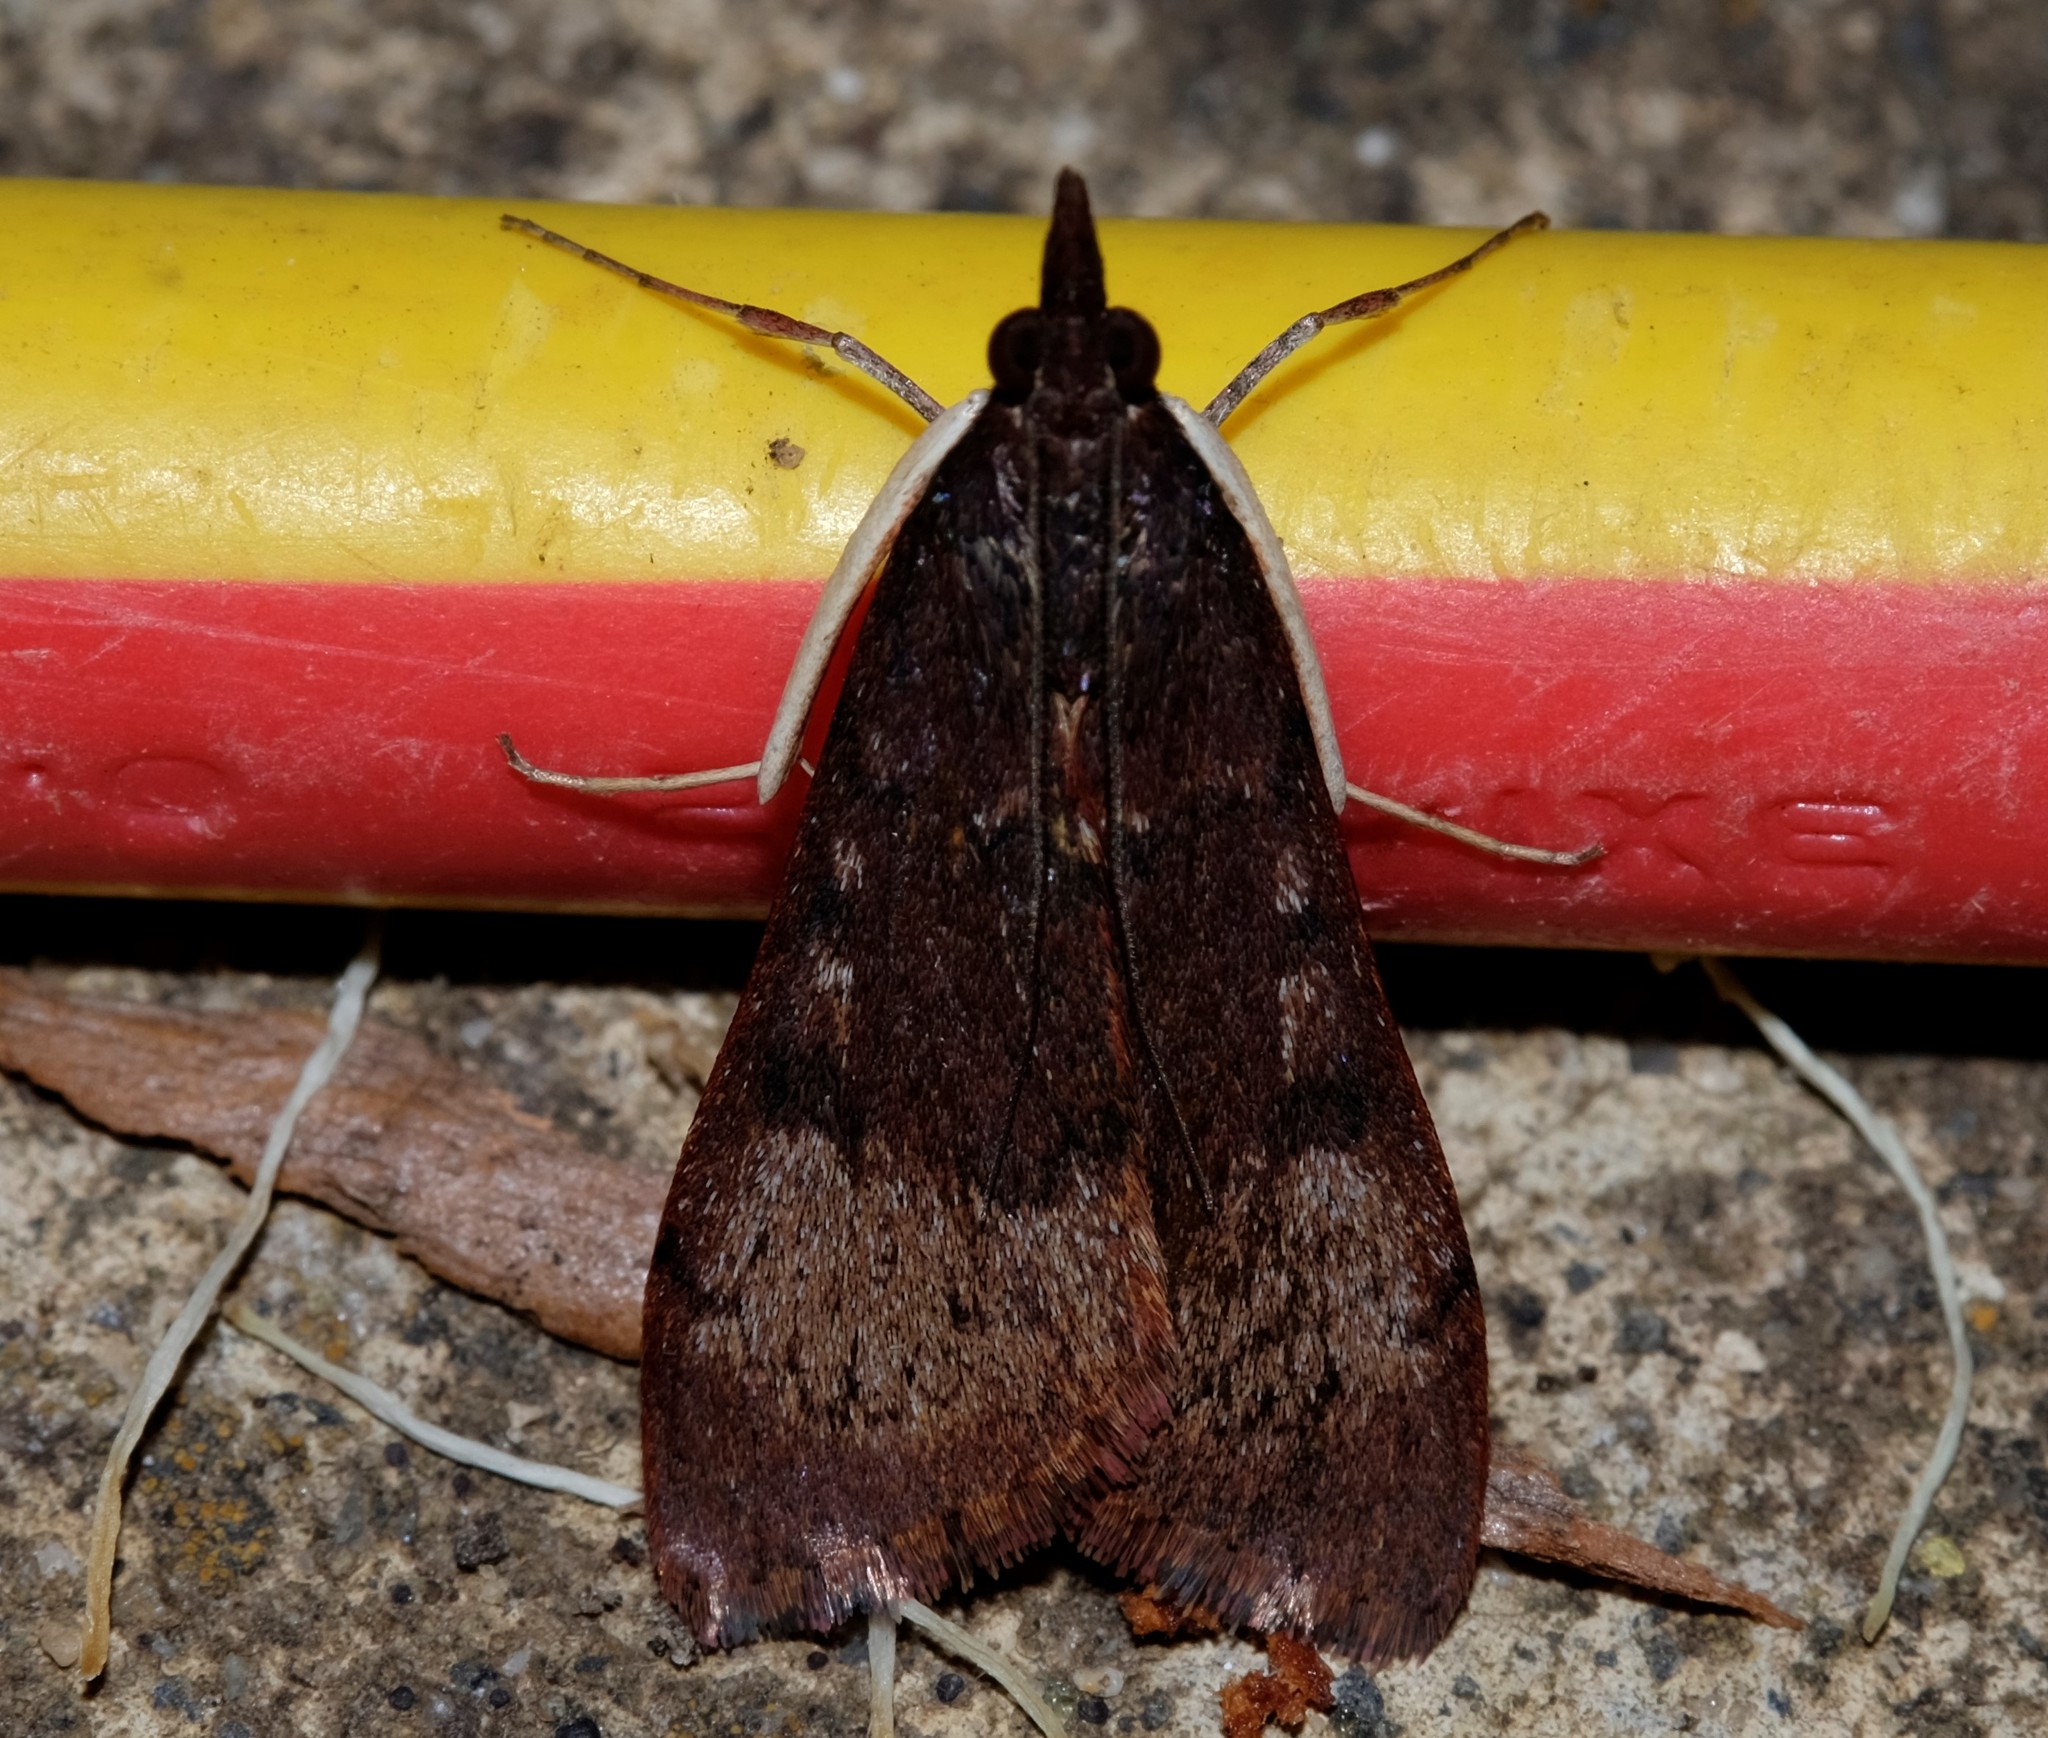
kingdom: Animalia
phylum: Arthropoda
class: Insecta
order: Lepidoptera
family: Crambidae
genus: Uresiphita
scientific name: Uresiphita ornithopteralis
